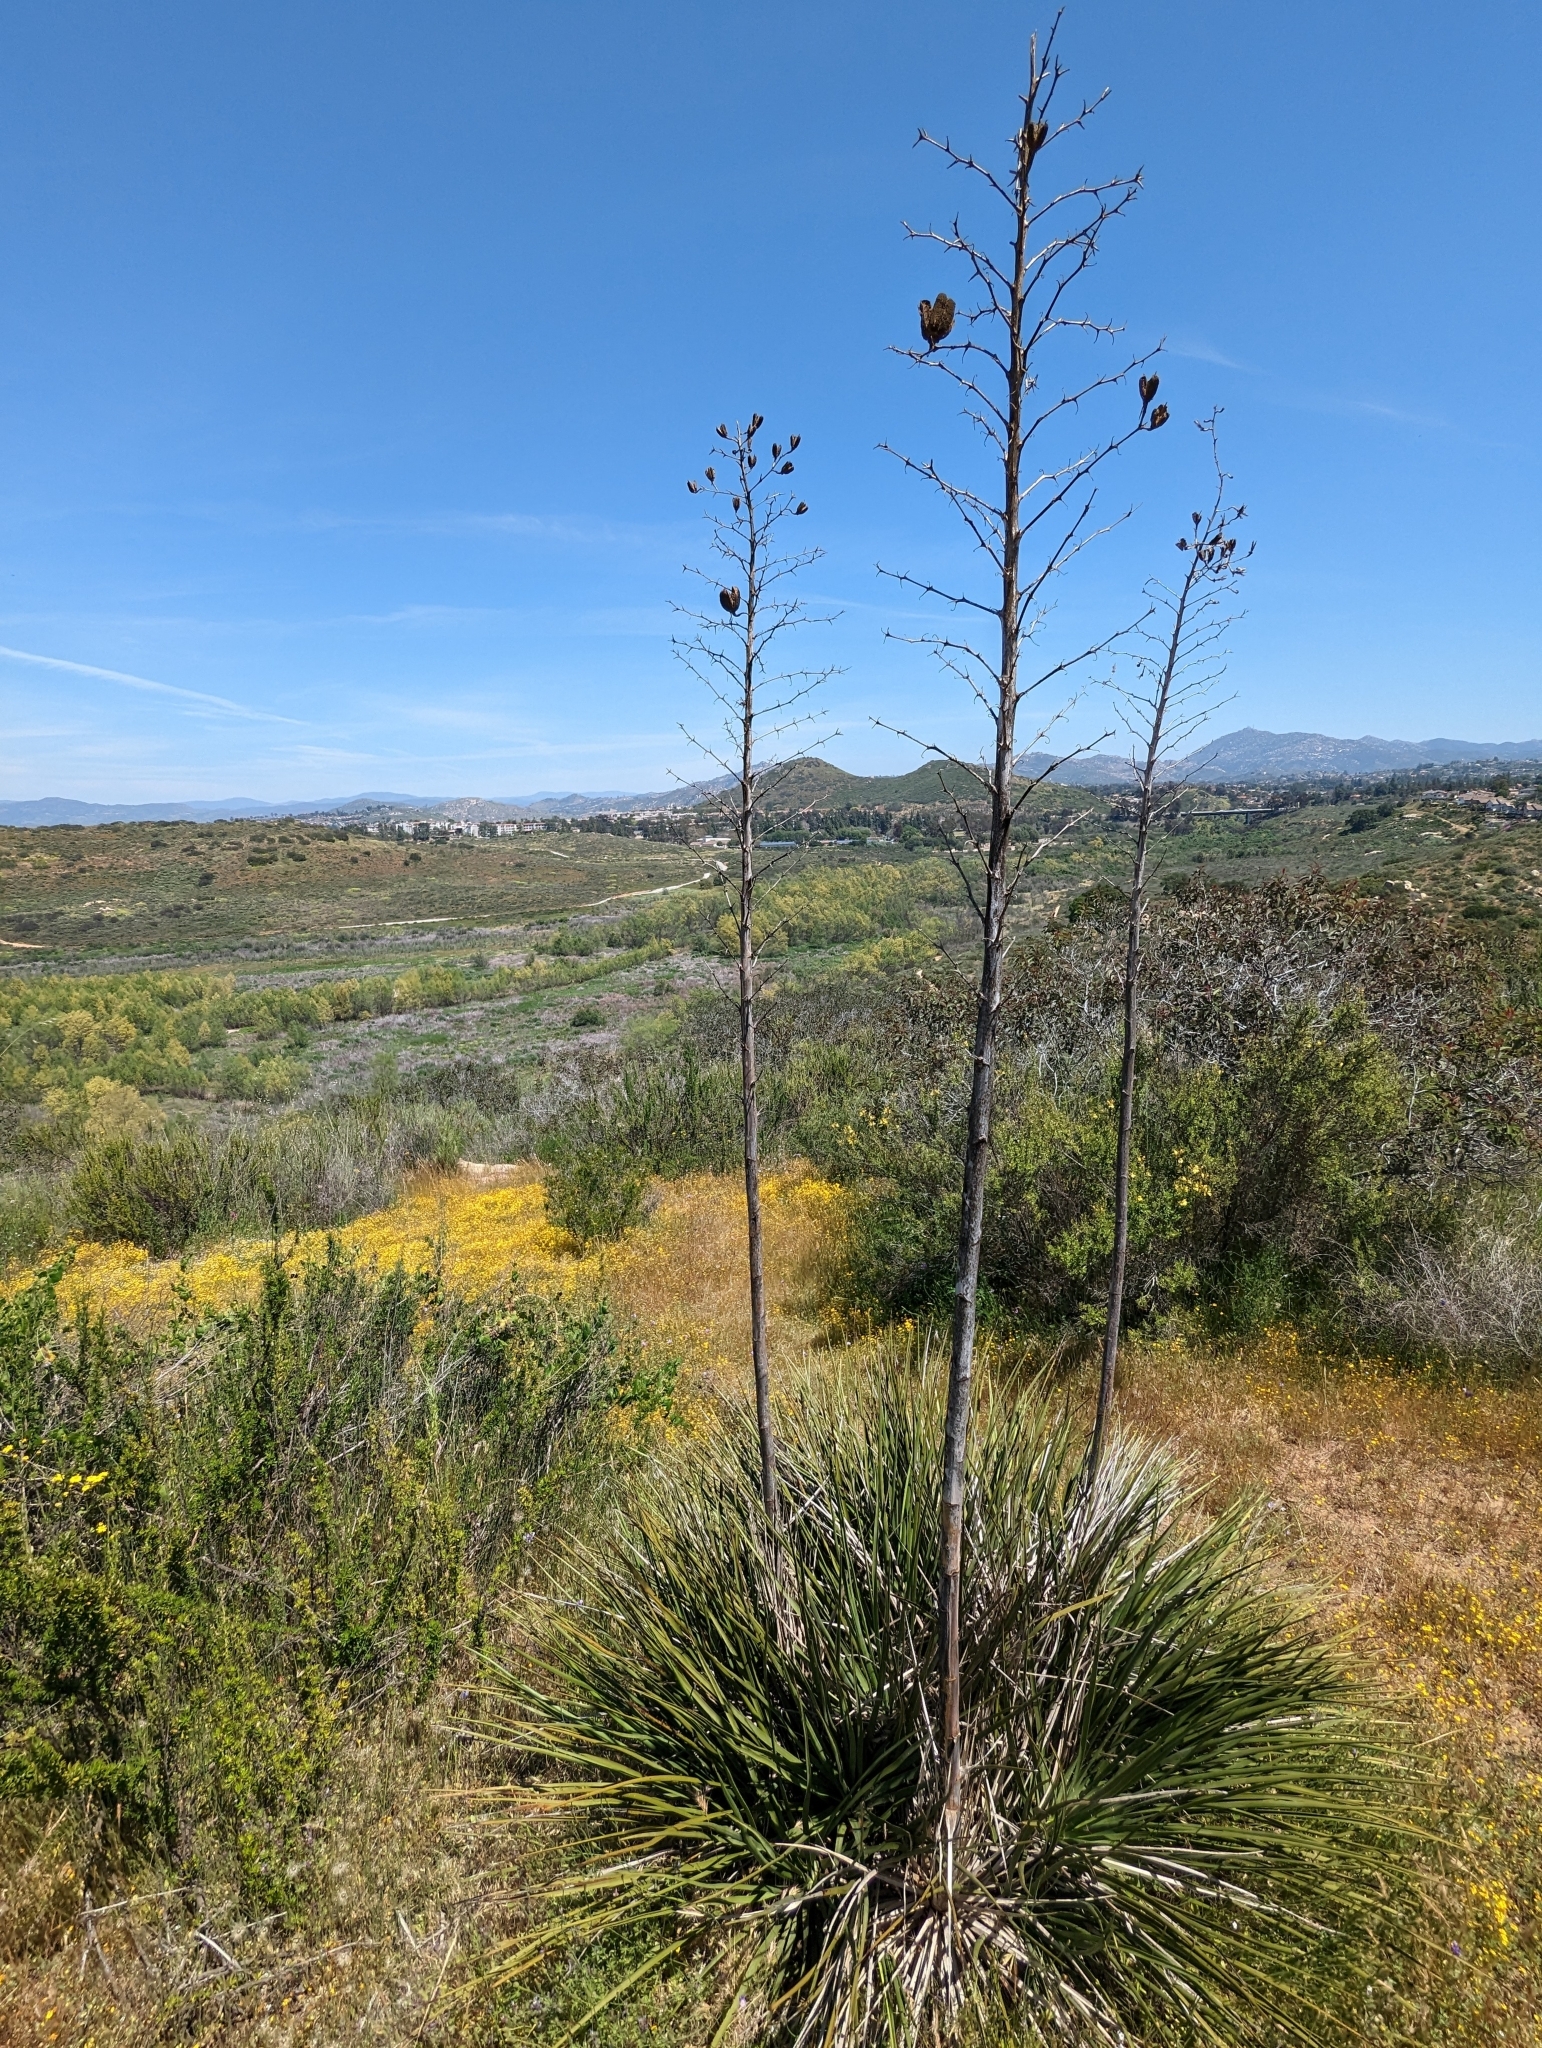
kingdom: Plantae
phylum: Tracheophyta
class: Liliopsida
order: Asparagales
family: Asparagaceae
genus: Hesperoyucca
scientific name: Hesperoyucca whipplei
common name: Our lord's-candle
